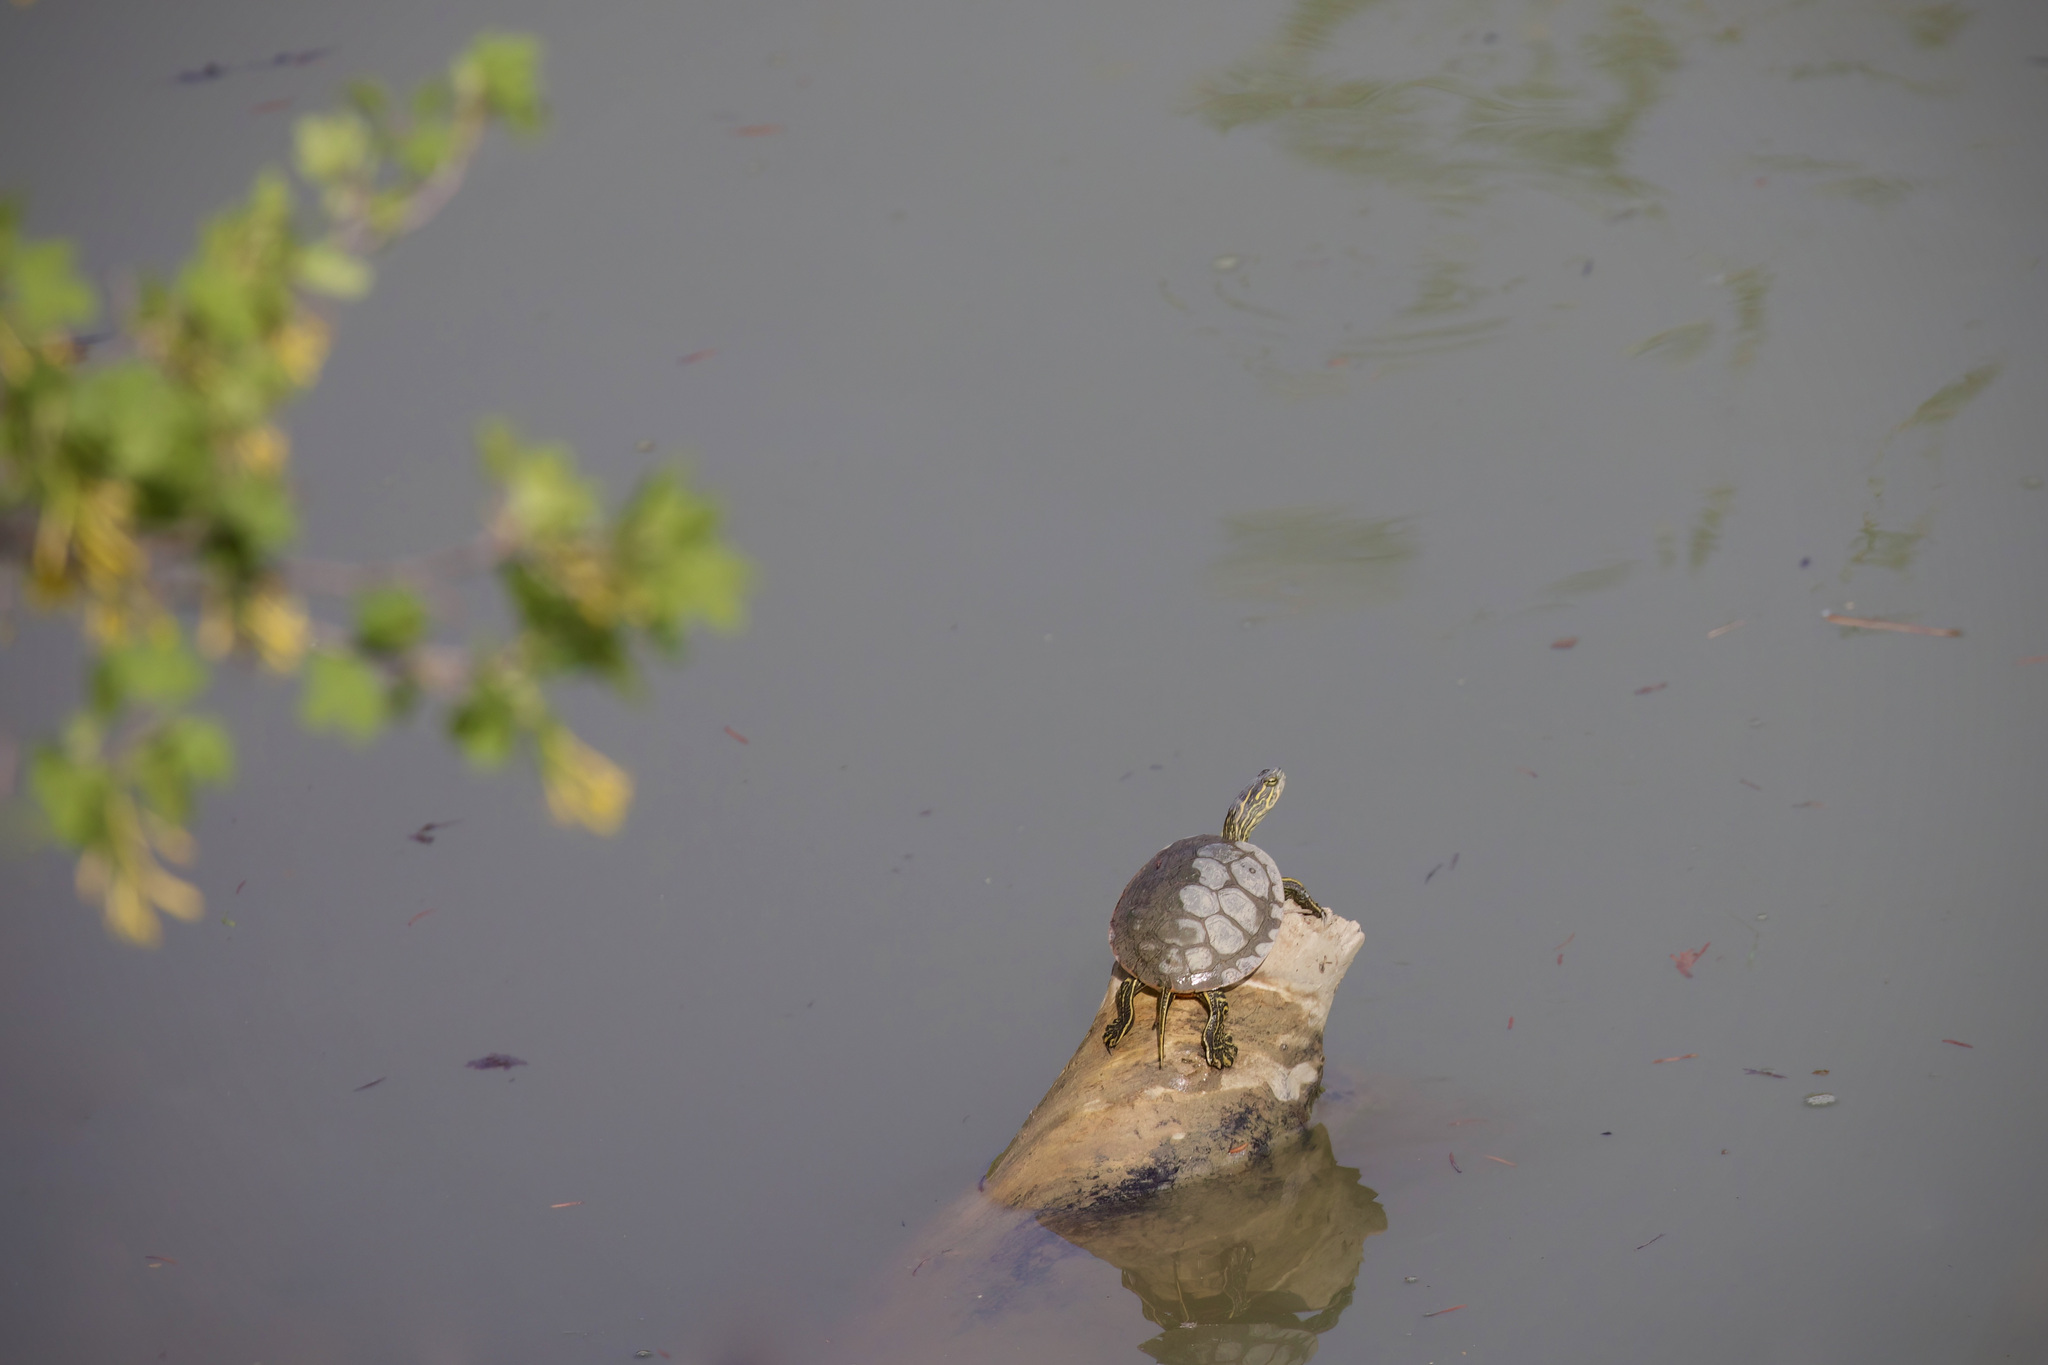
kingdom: Animalia
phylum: Chordata
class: Testudines
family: Emydidae
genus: Chrysemys
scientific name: Chrysemys picta
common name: Painted turtle
